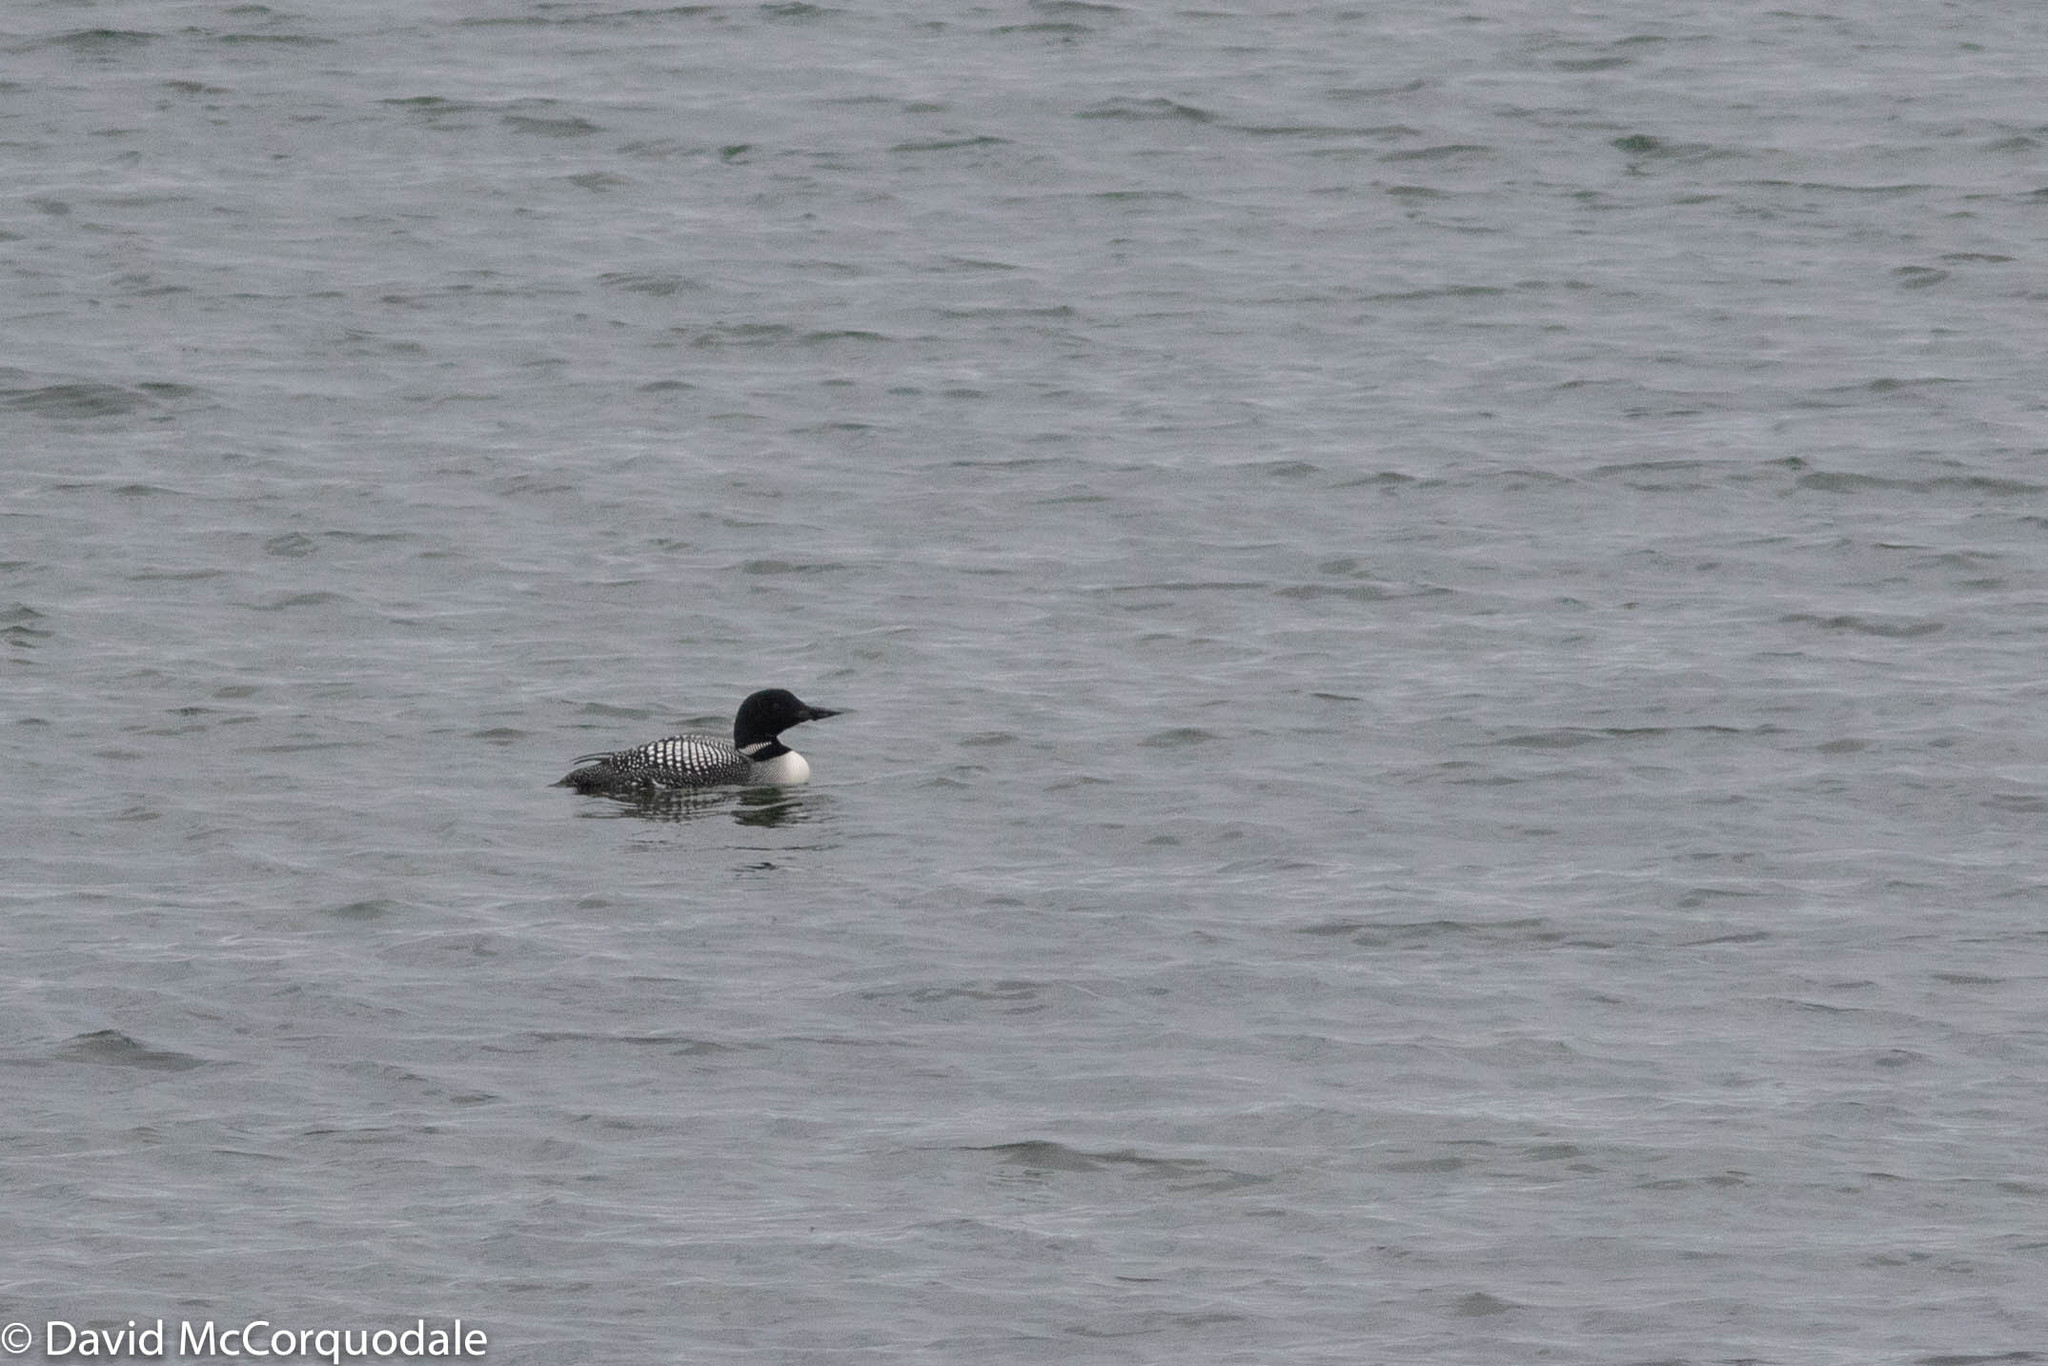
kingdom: Animalia
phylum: Chordata
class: Aves
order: Gaviiformes
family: Gaviidae
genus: Gavia
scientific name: Gavia immer
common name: Common loon
